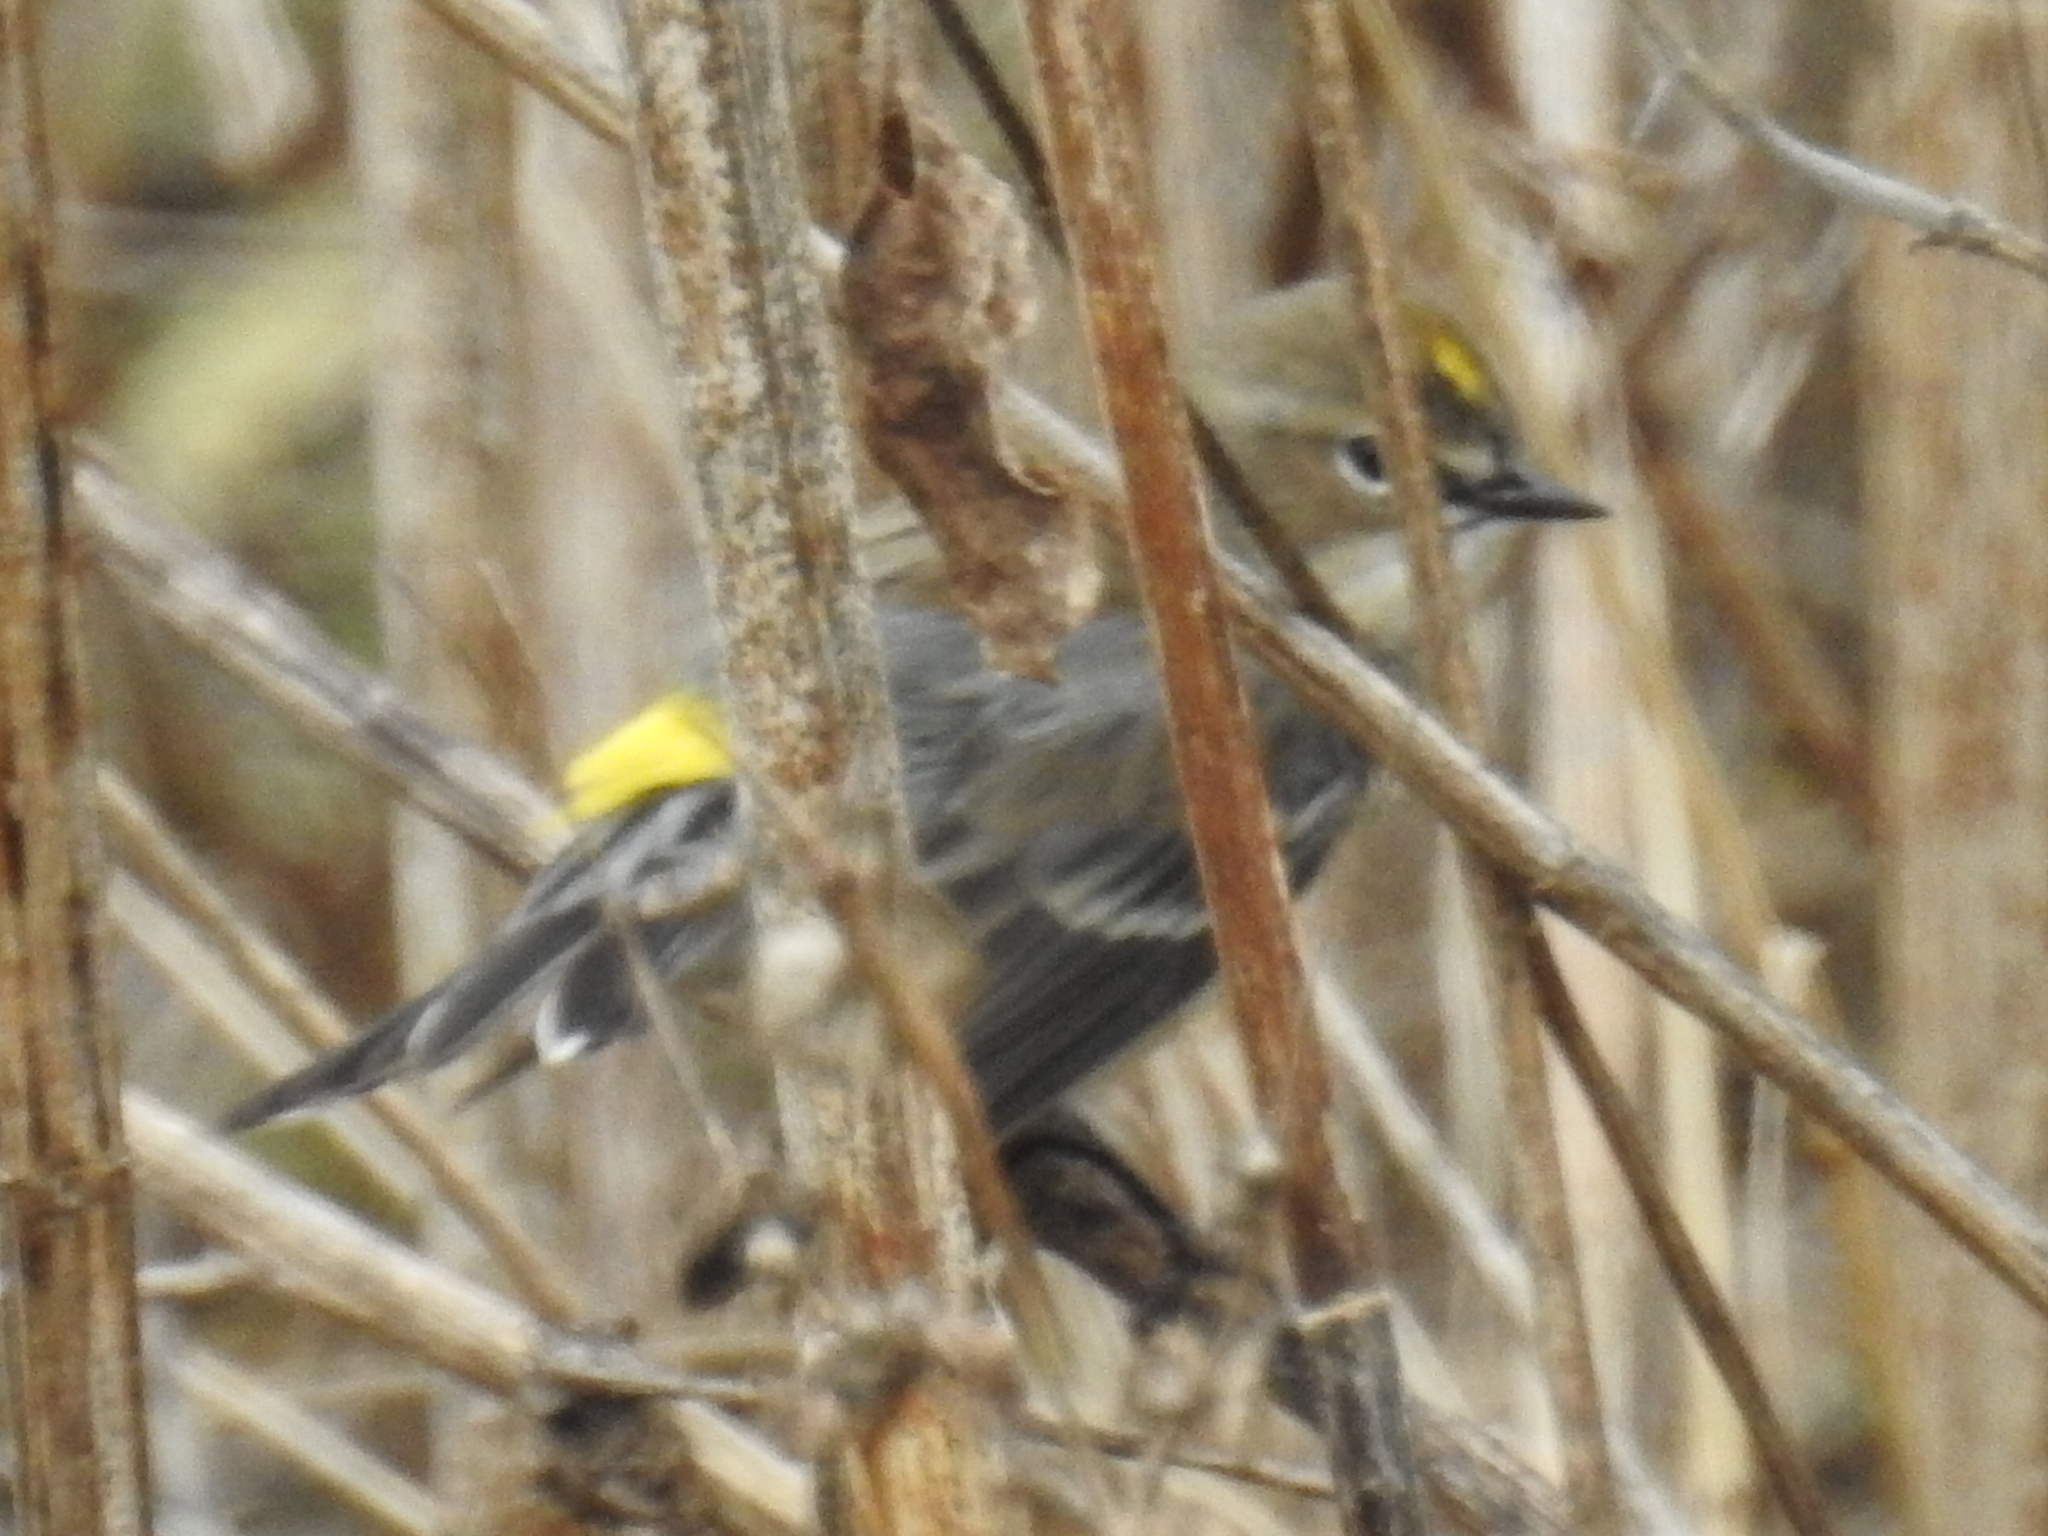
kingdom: Animalia
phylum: Chordata
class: Aves
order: Passeriformes
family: Parulidae
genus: Setophaga
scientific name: Setophaga coronata
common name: Myrtle warbler
